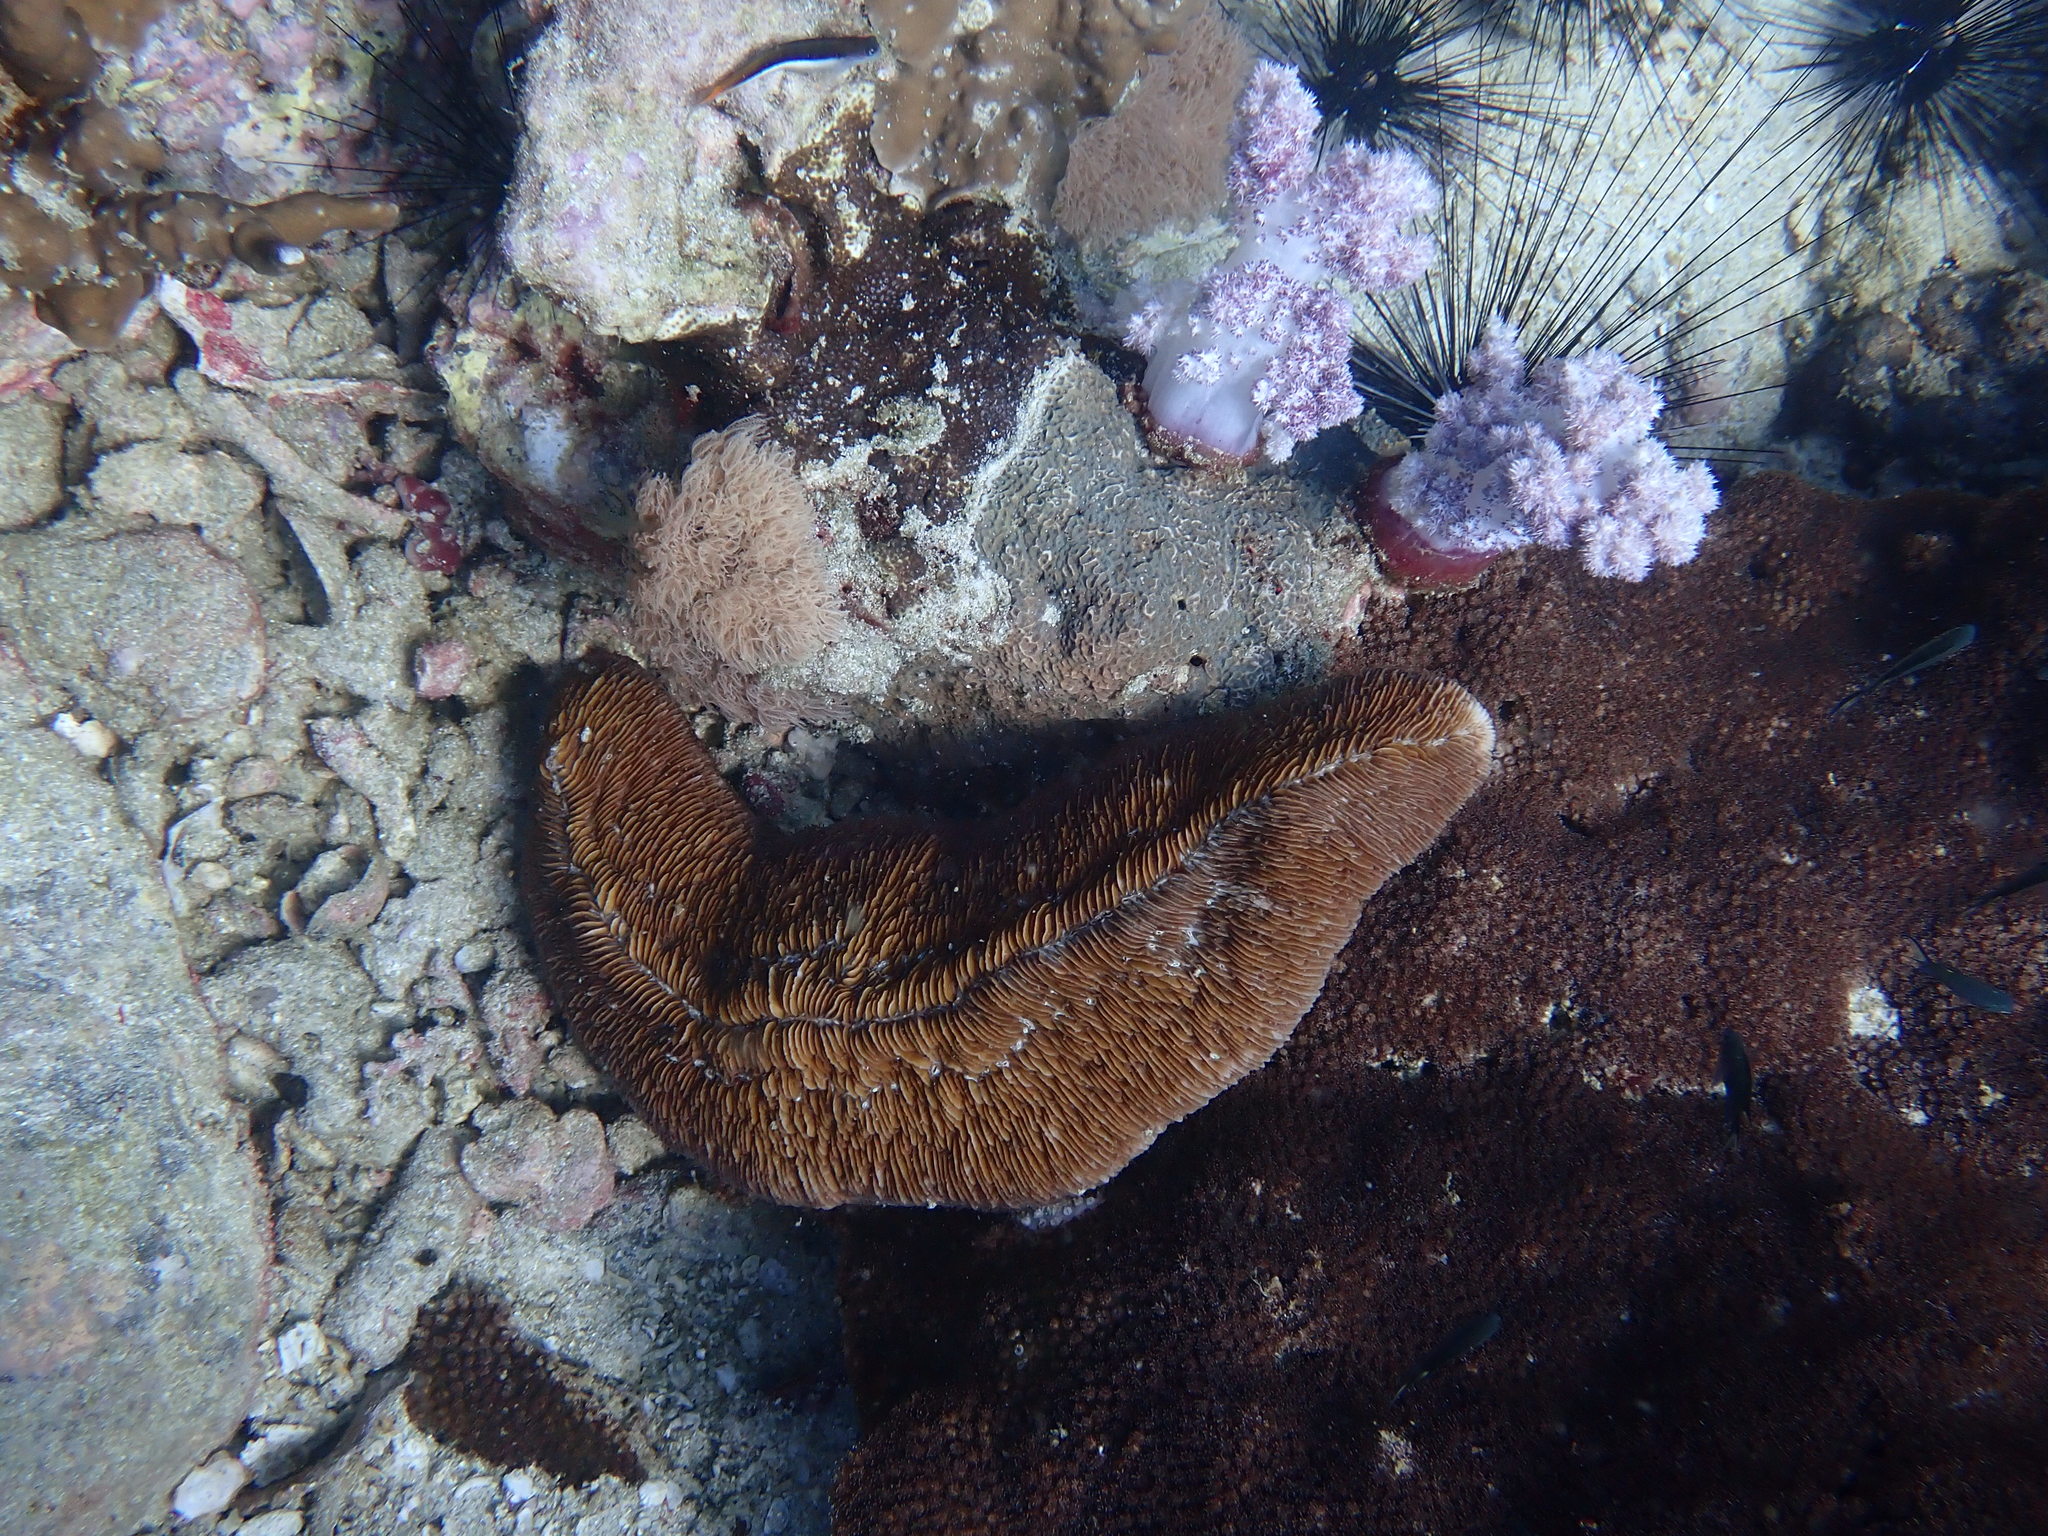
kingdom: Animalia
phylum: Cnidaria
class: Anthozoa
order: Scleractinia
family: Fungiidae
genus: Herpolitha
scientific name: Herpolitha limax
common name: Striate boomerang coral
